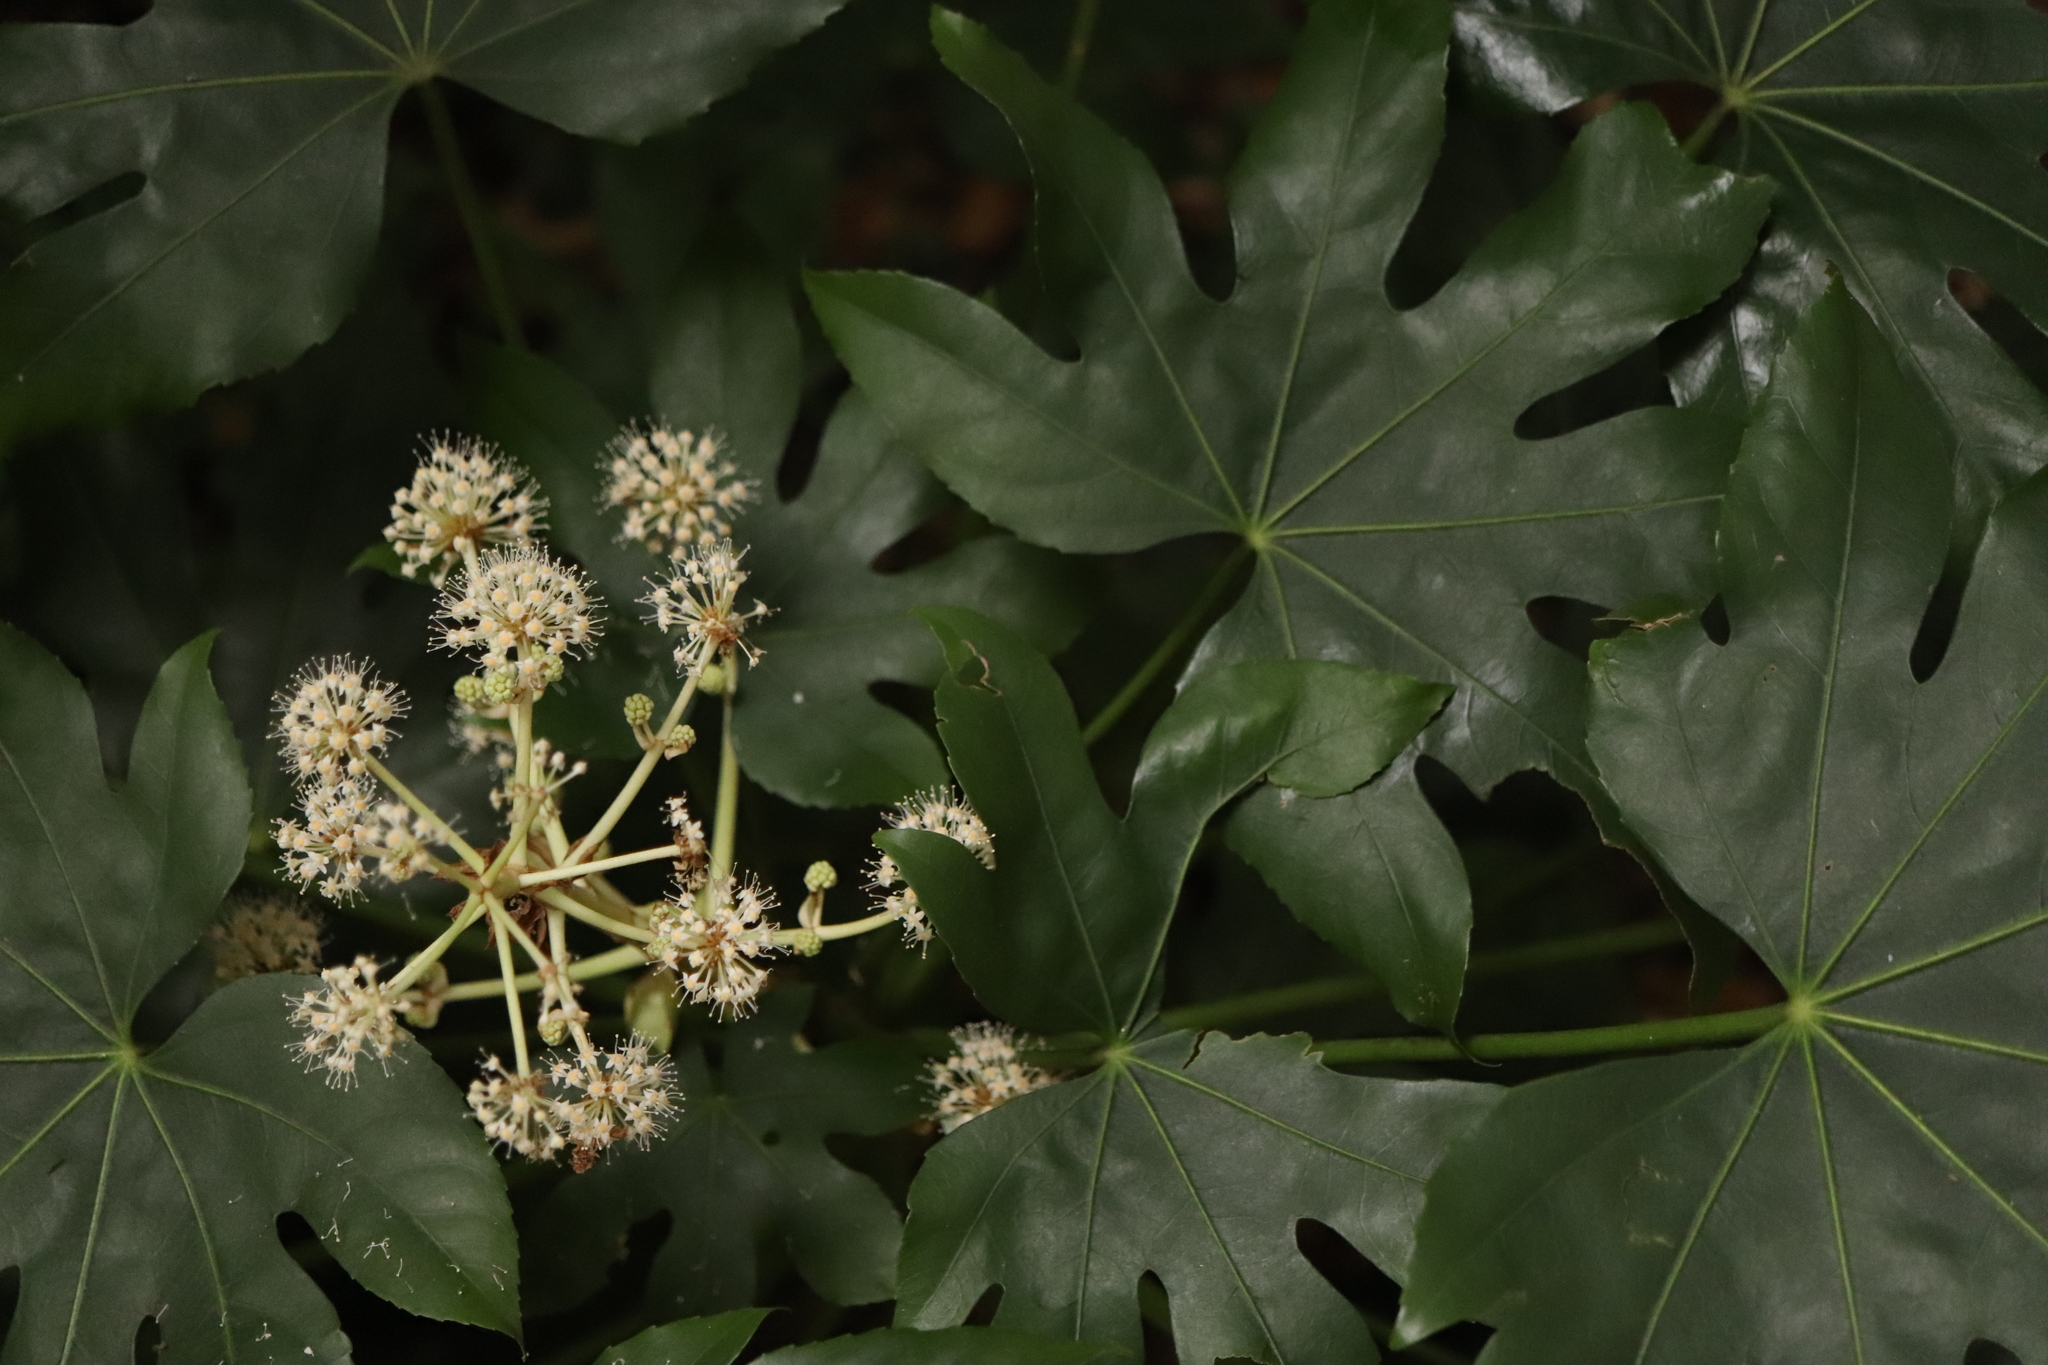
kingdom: Plantae
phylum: Tracheophyta
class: Magnoliopsida
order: Apiales
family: Araliaceae
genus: Fatsia
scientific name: Fatsia japonica
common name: Fatsia
